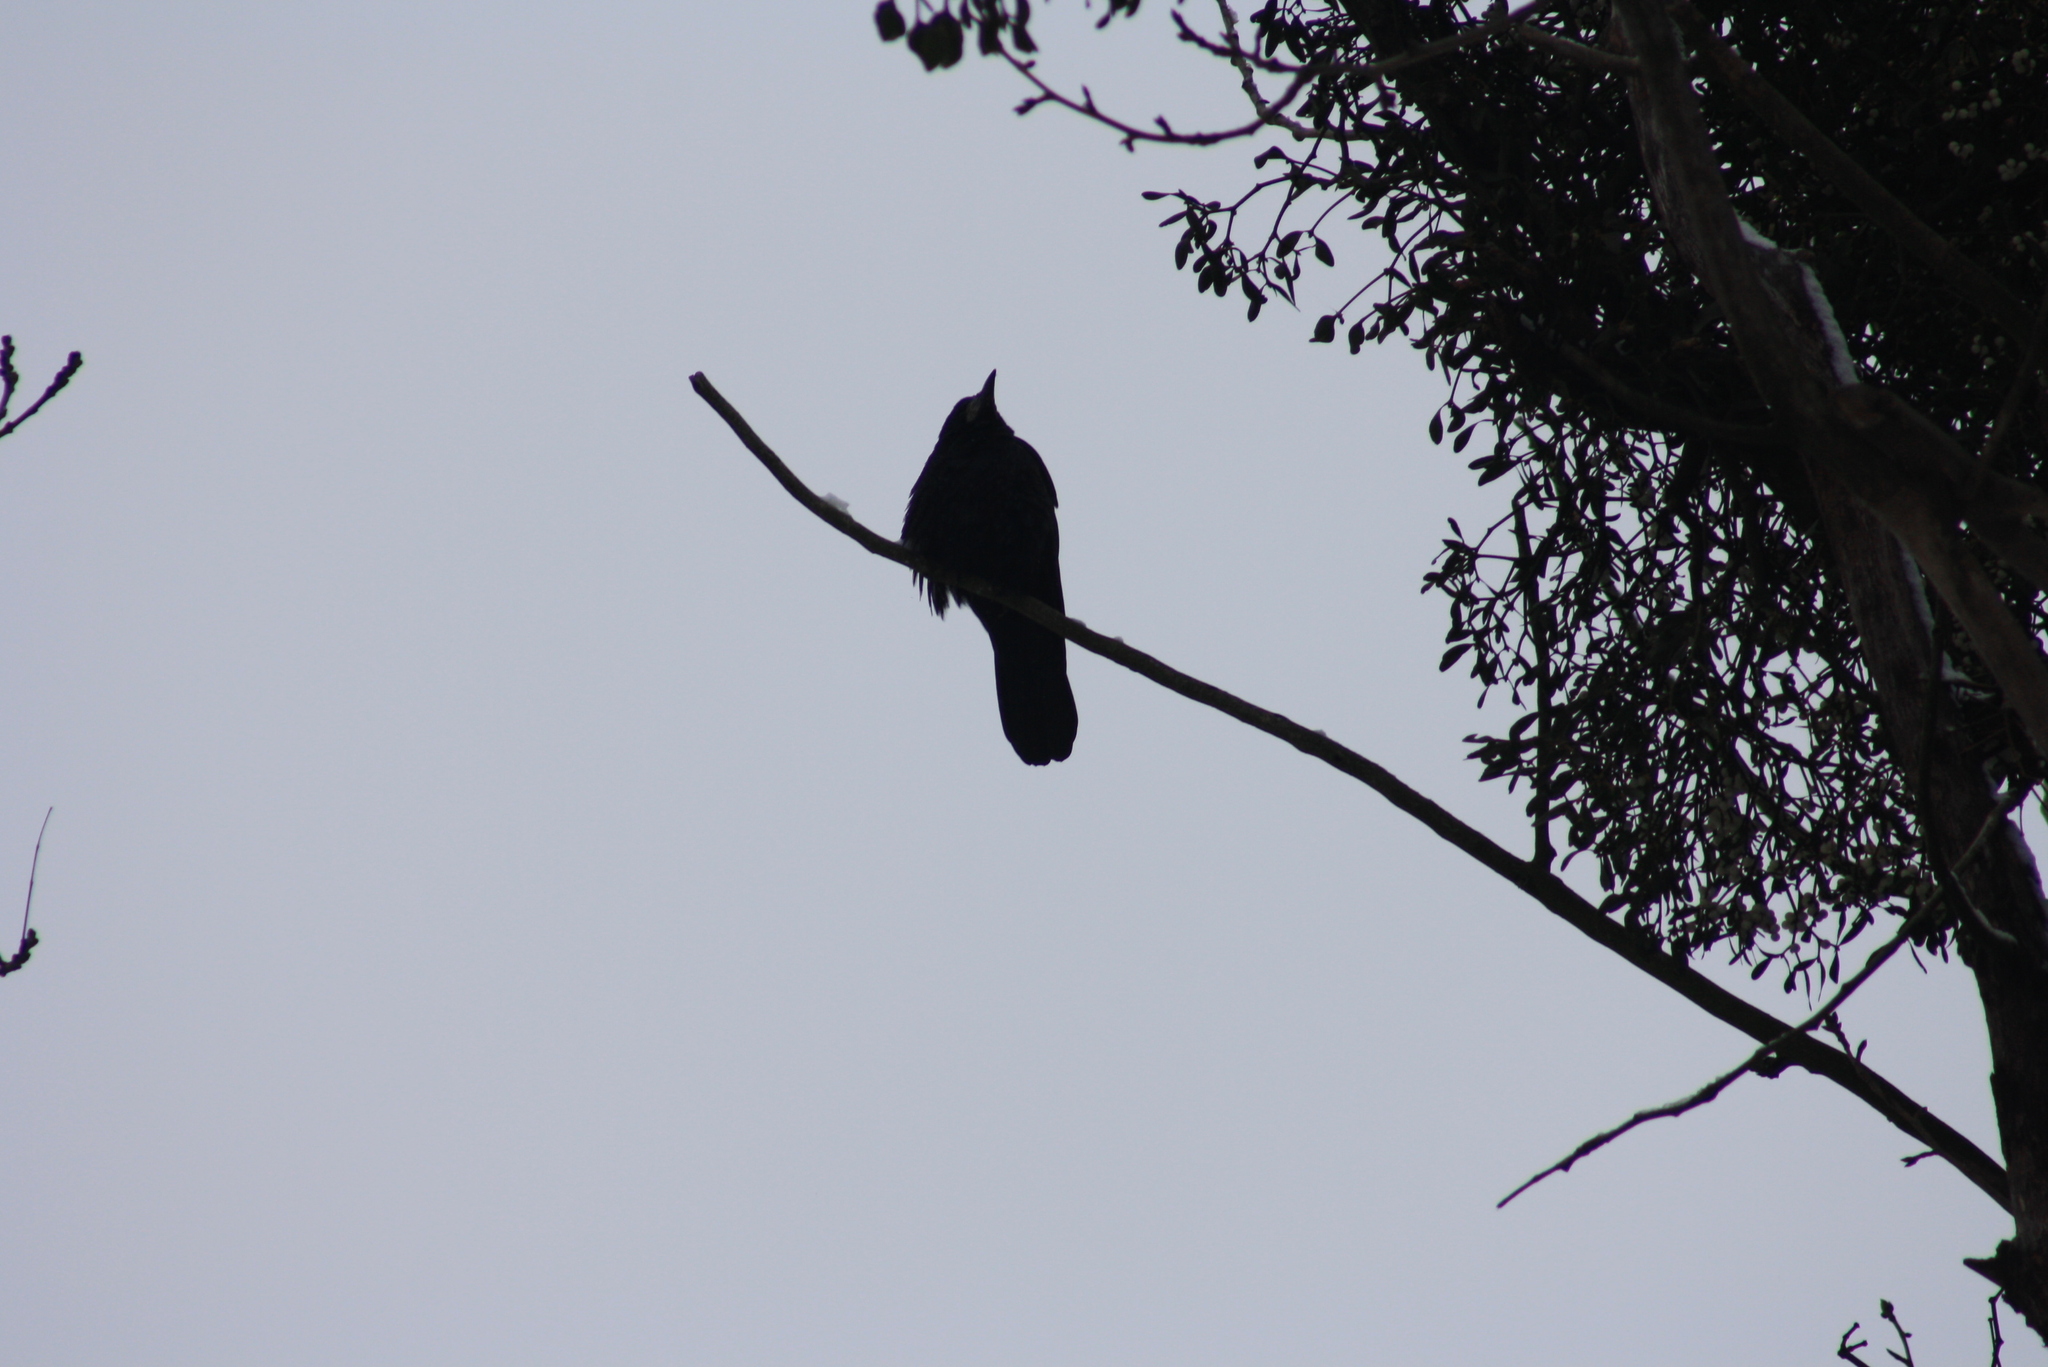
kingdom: Animalia
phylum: Chordata
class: Aves
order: Passeriformes
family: Corvidae
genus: Corvus
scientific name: Corvus frugilegus
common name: Rook
